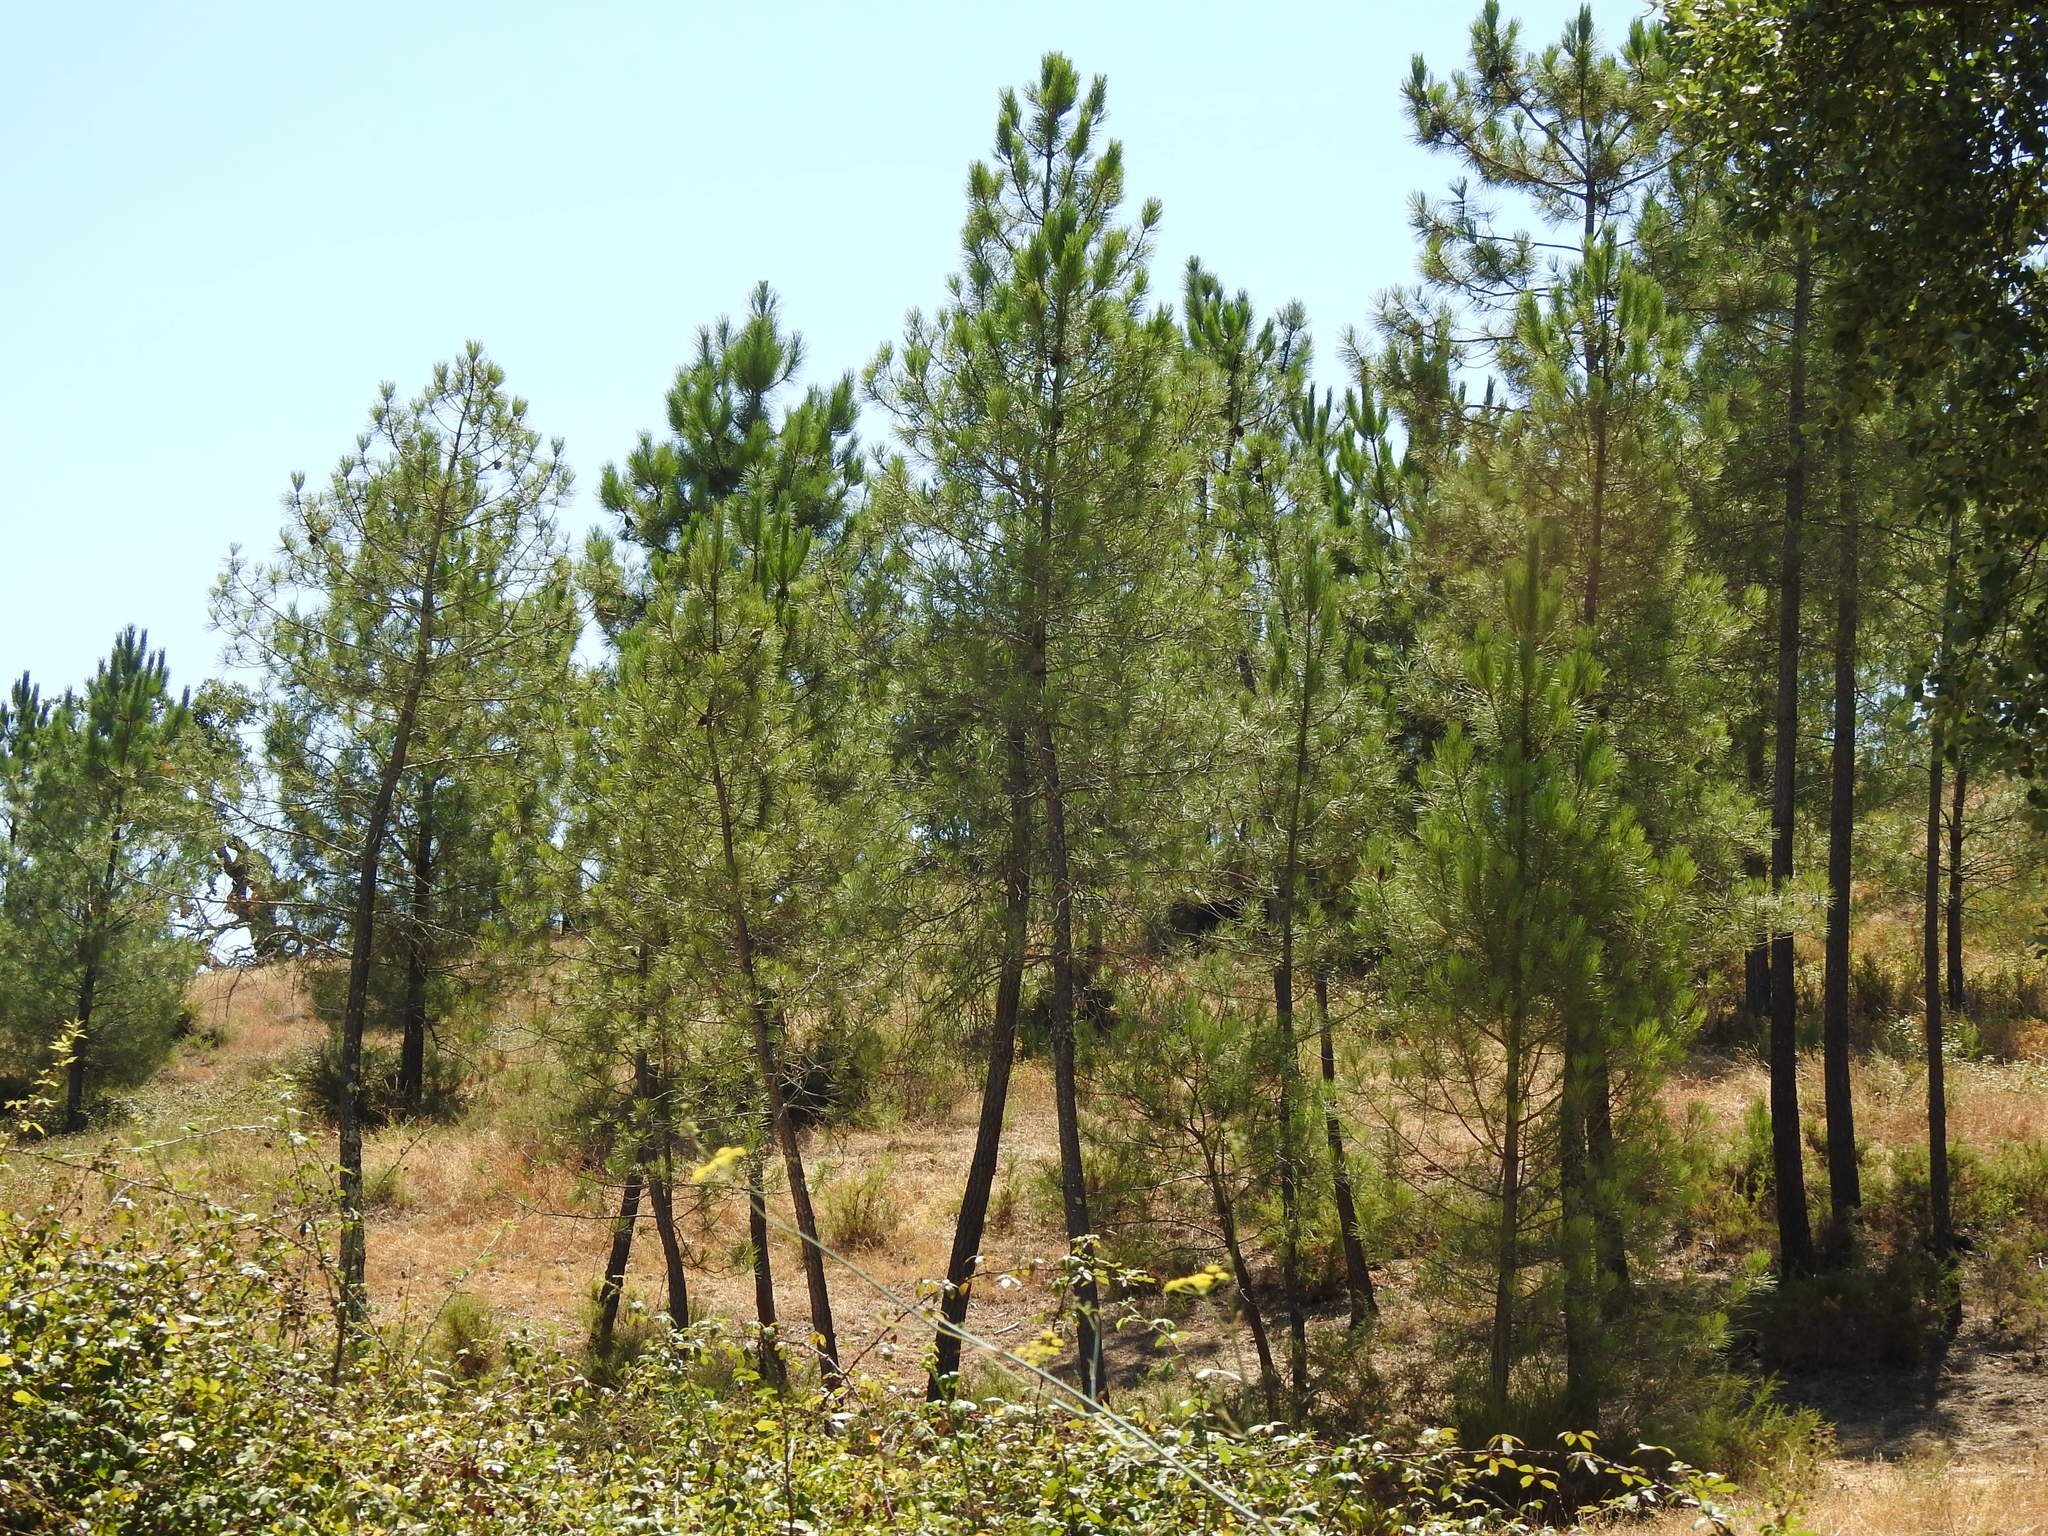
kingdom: Plantae
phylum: Tracheophyta
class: Pinopsida
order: Pinales
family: Pinaceae
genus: Pinus
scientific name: Pinus pinaster
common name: Maritime pine
